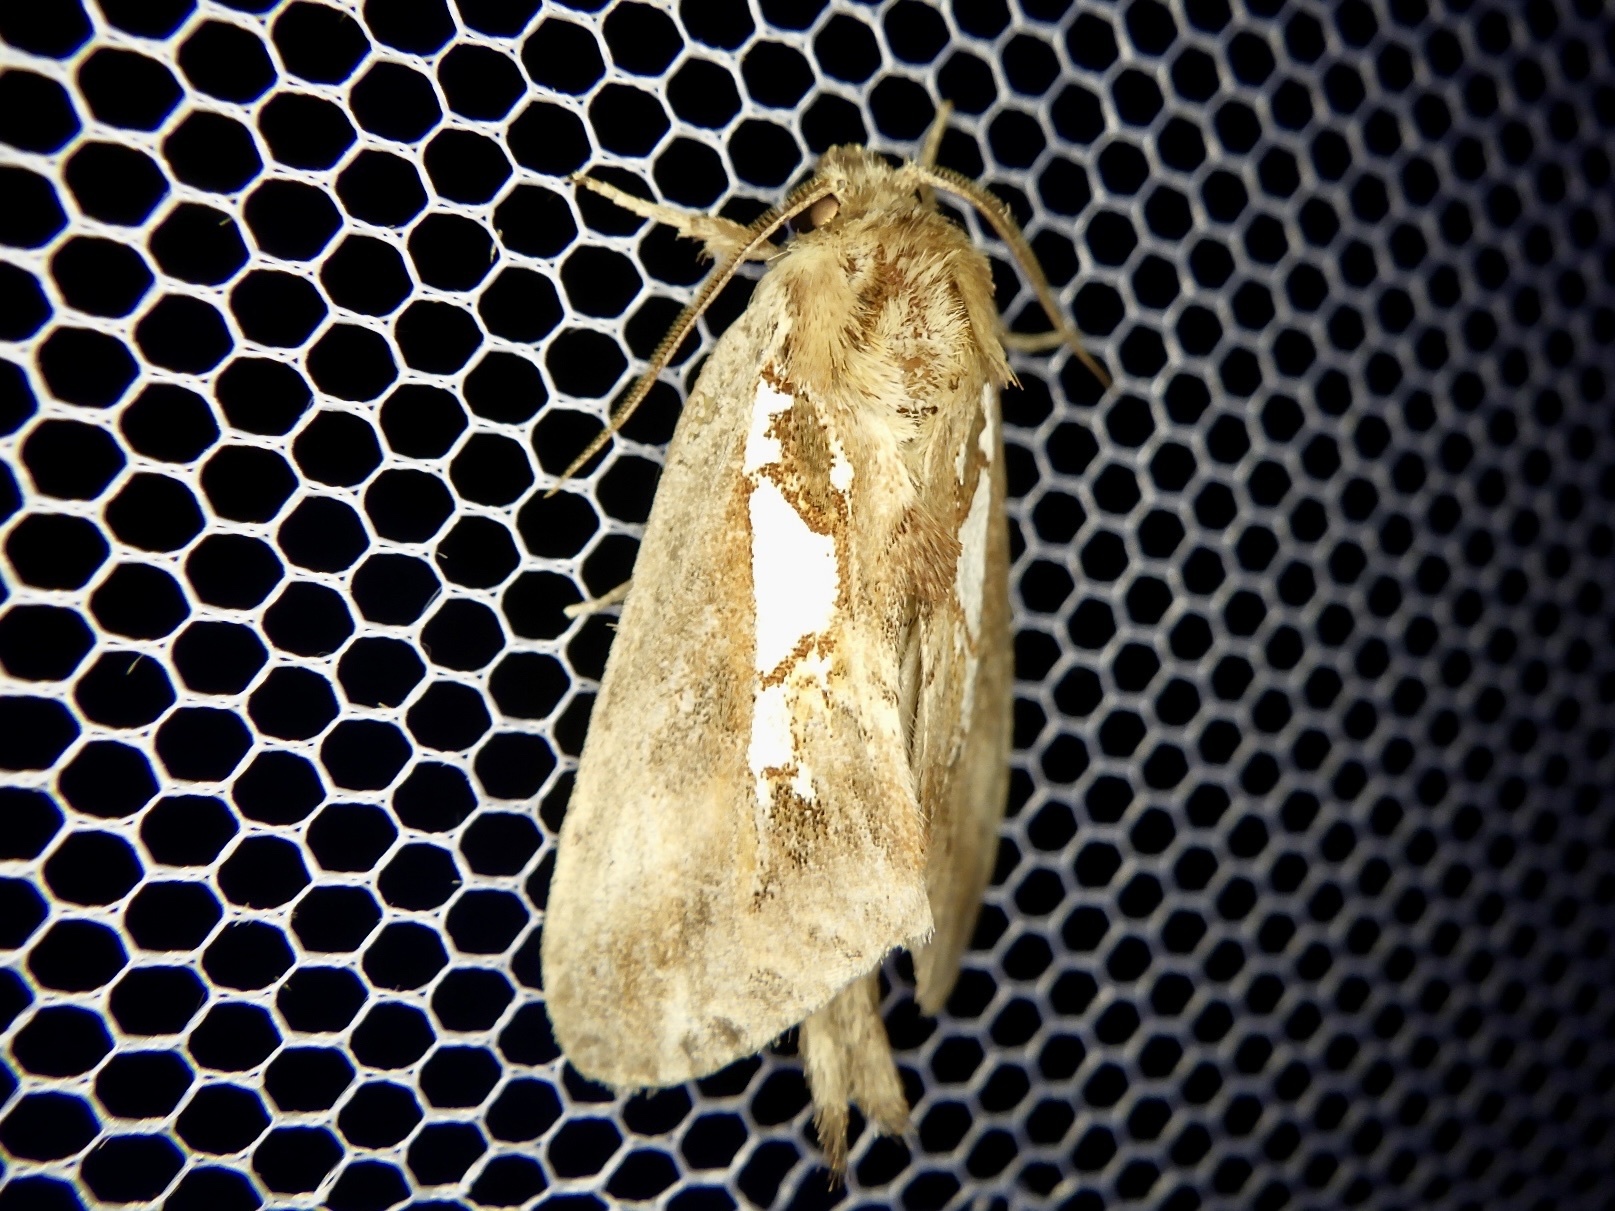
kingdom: Animalia
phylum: Arthropoda
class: Insecta
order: Lepidoptera
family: Notodontidae
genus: Spatalia
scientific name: Spatalia doerriesi
